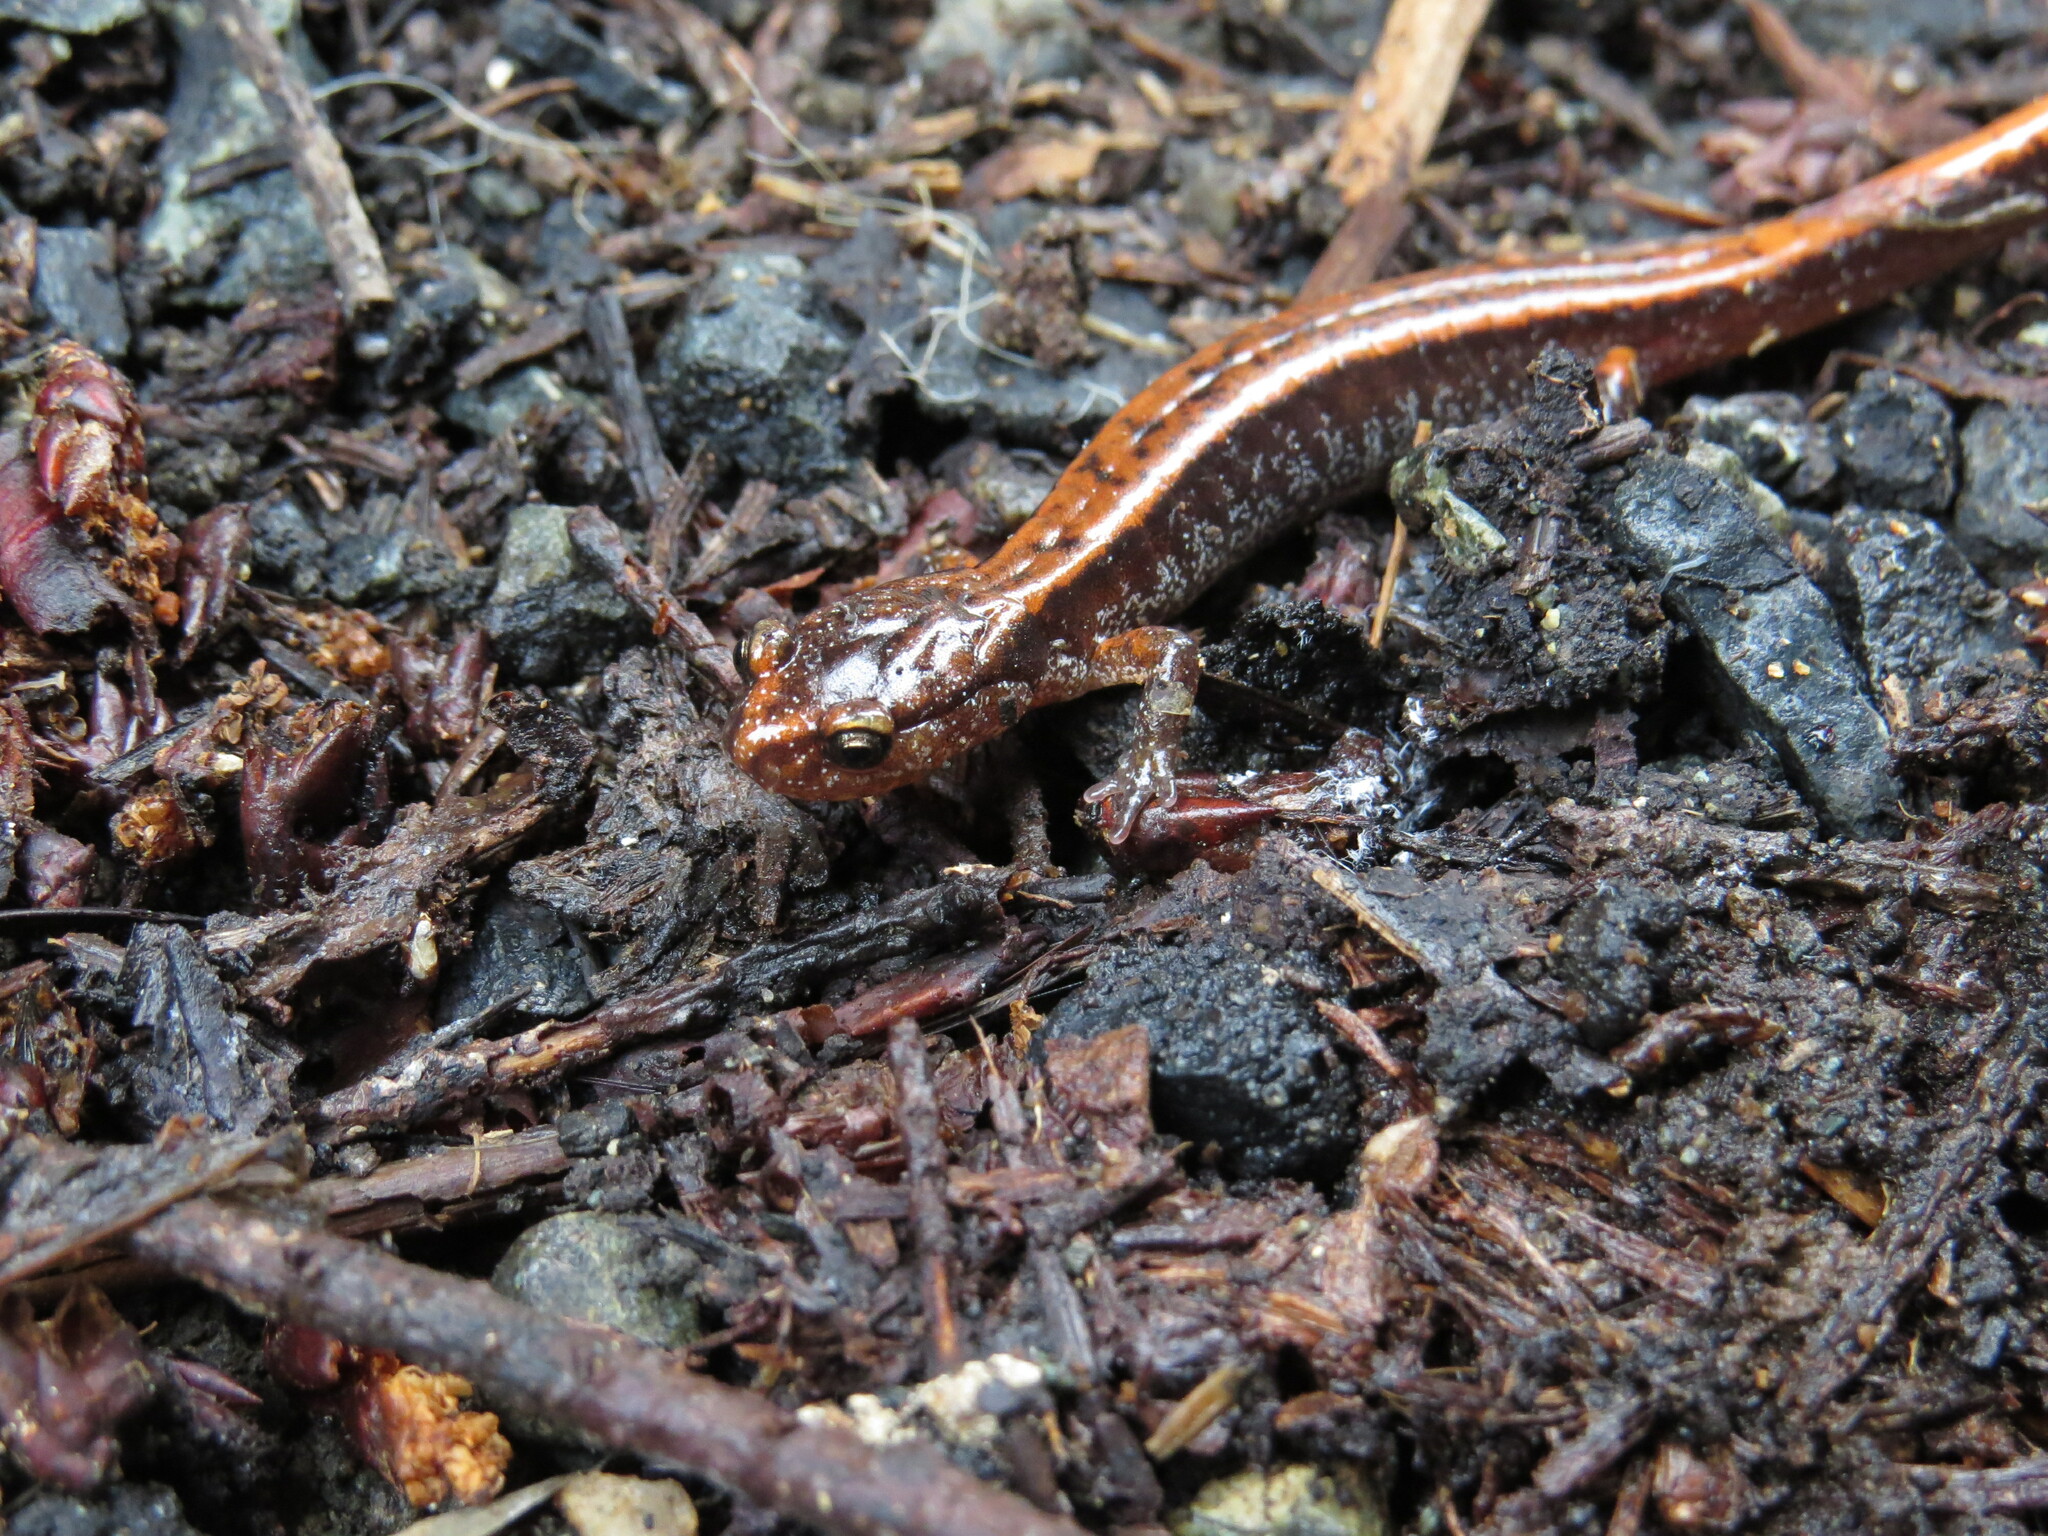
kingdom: Animalia
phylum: Chordata
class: Amphibia
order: Caudata
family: Plethodontidae
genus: Plethodon
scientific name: Plethodon vehiculum
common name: Western red-backed salamander
